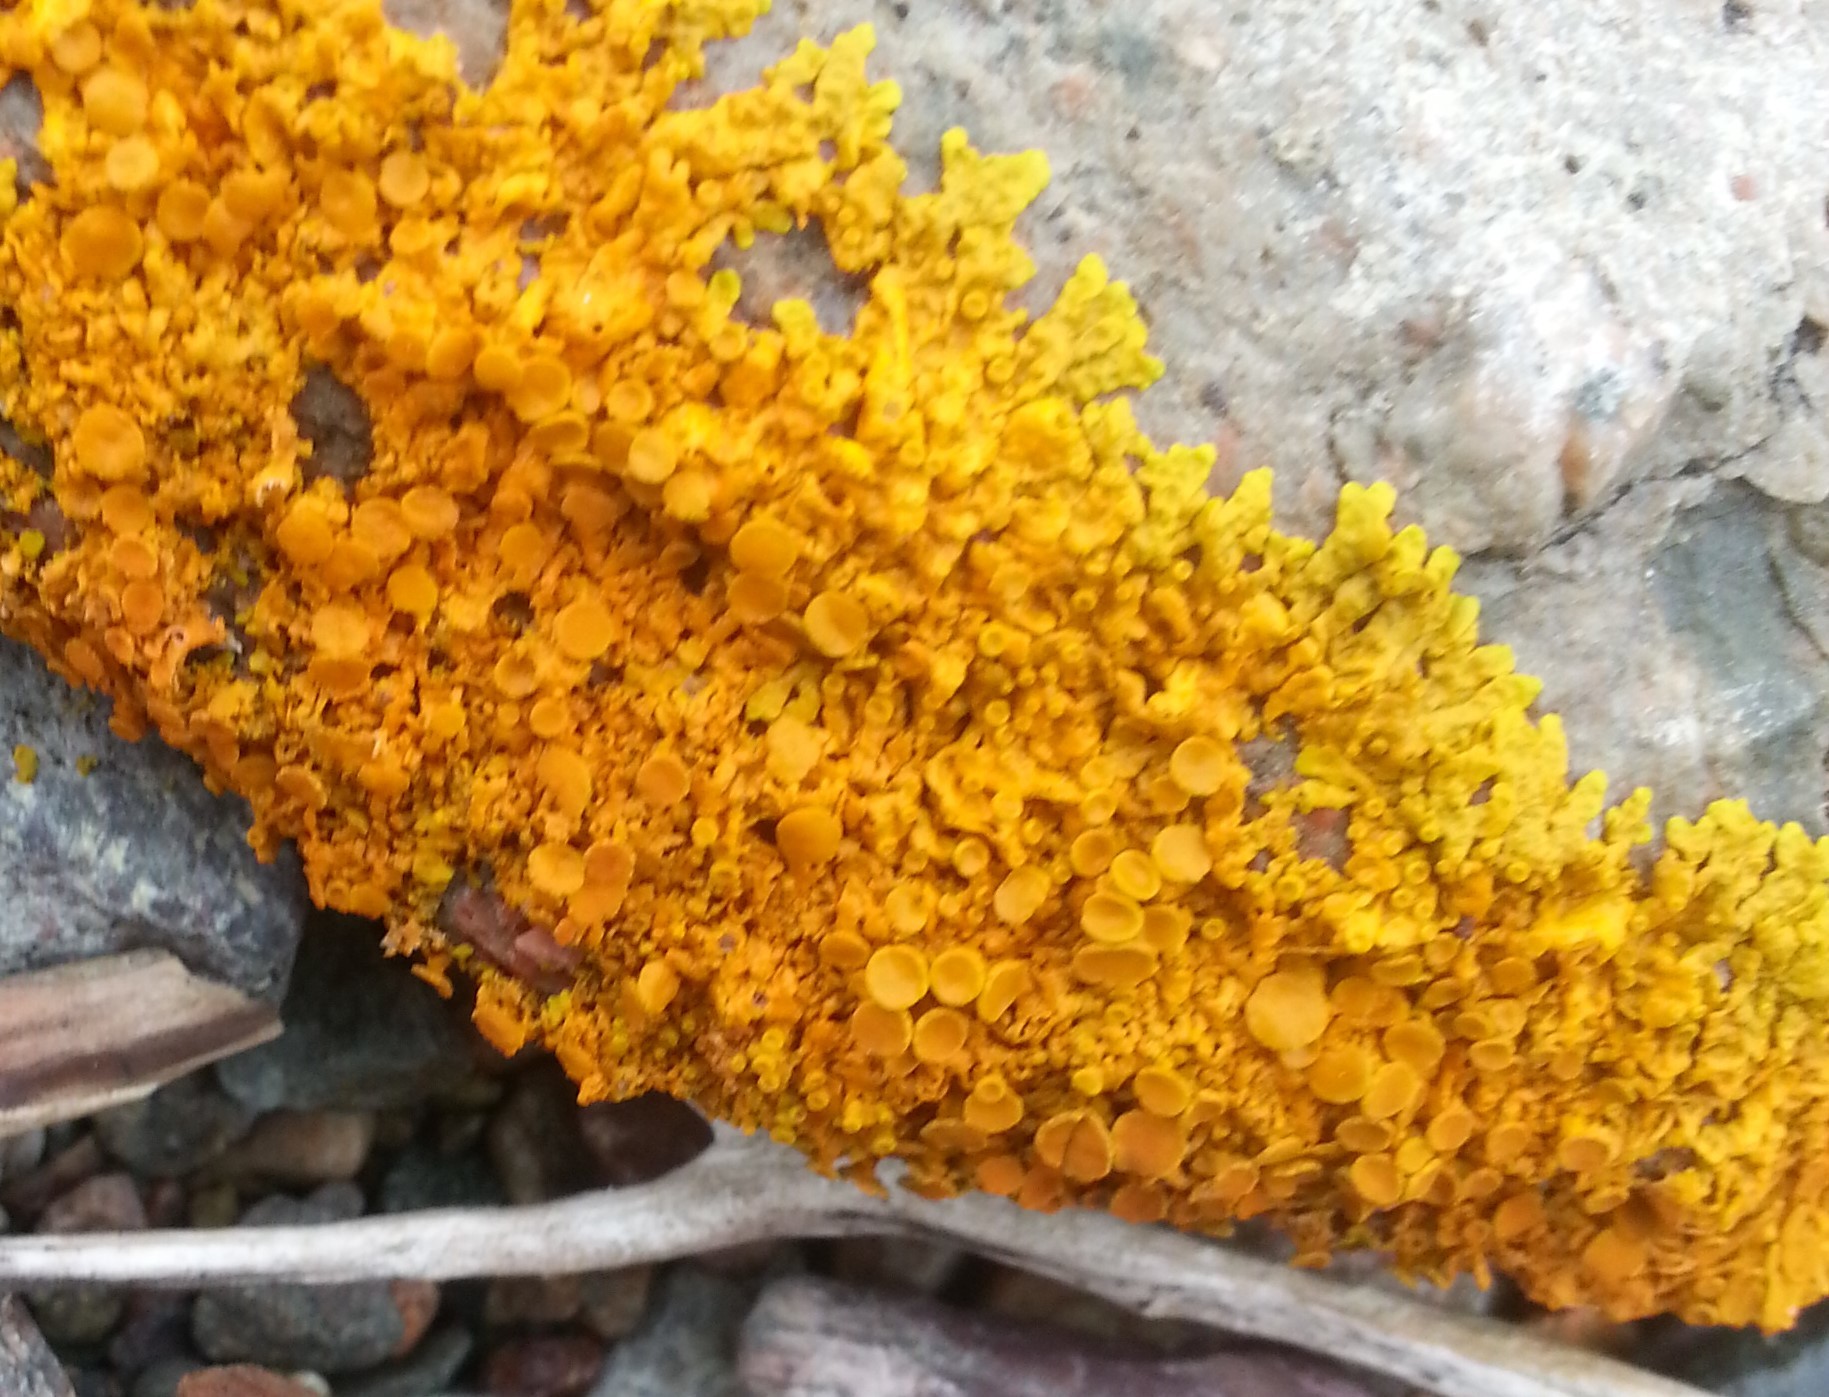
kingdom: Fungi
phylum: Ascomycota
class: Lecanoromycetes
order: Teloschistales
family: Teloschistaceae
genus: Xanthoria
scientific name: Xanthoria parietina
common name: Common orange lichen
